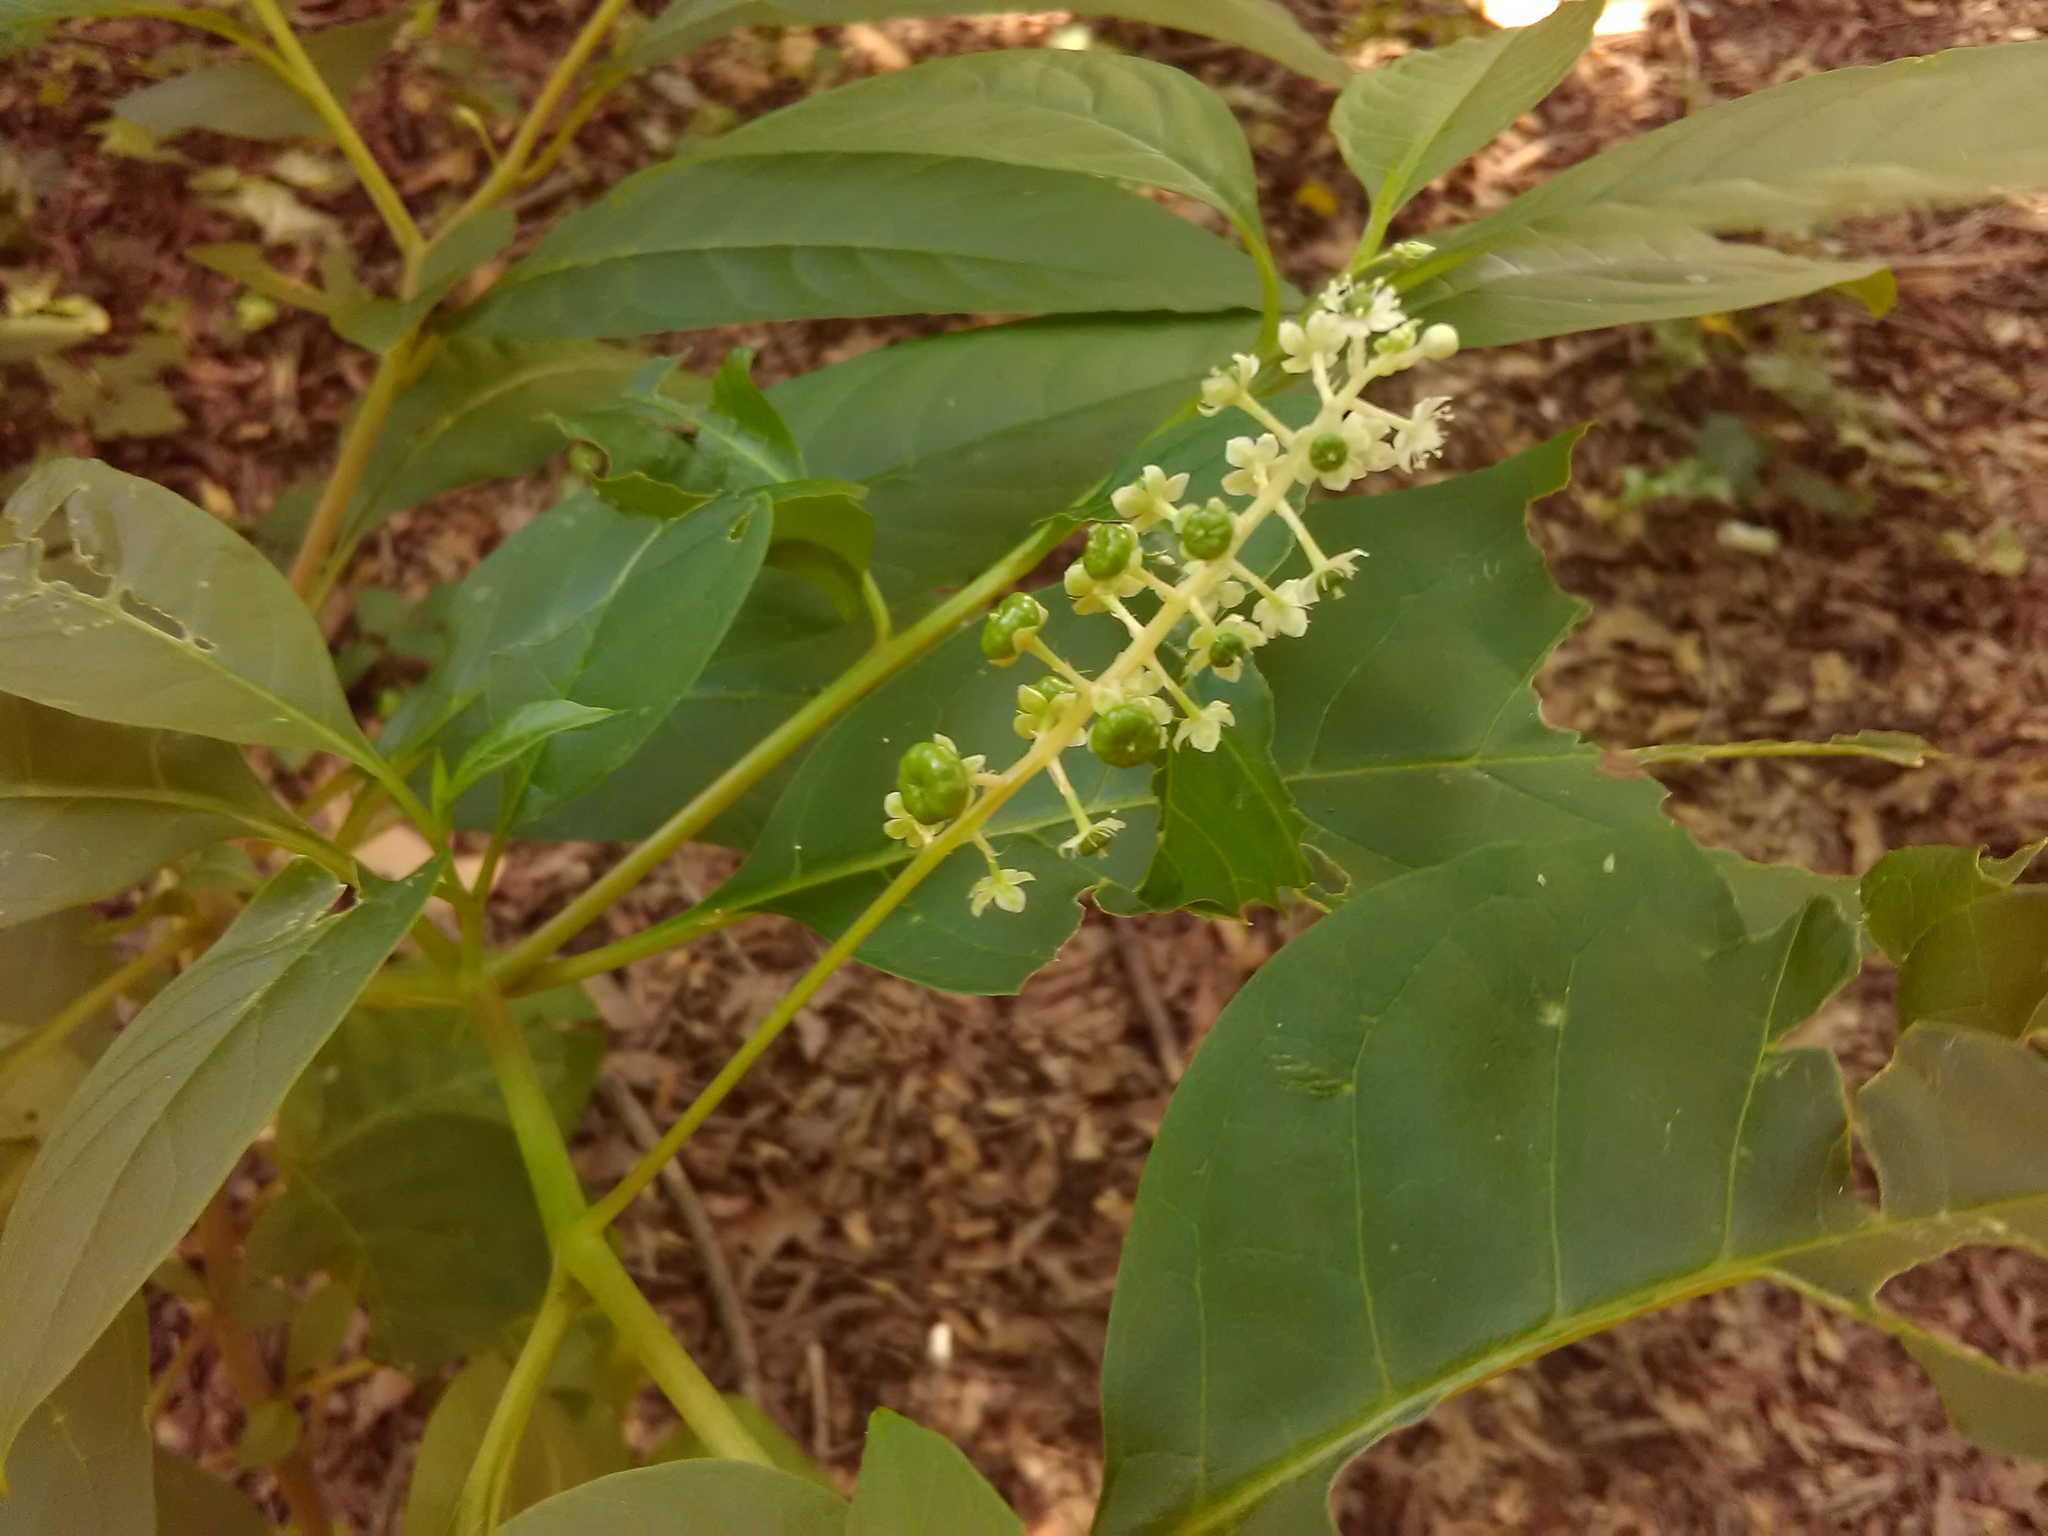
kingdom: Plantae
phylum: Tracheophyta
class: Magnoliopsida
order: Caryophyllales
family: Phytolaccaceae
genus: Phytolacca
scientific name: Phytolacca americana
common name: American pokeweed
